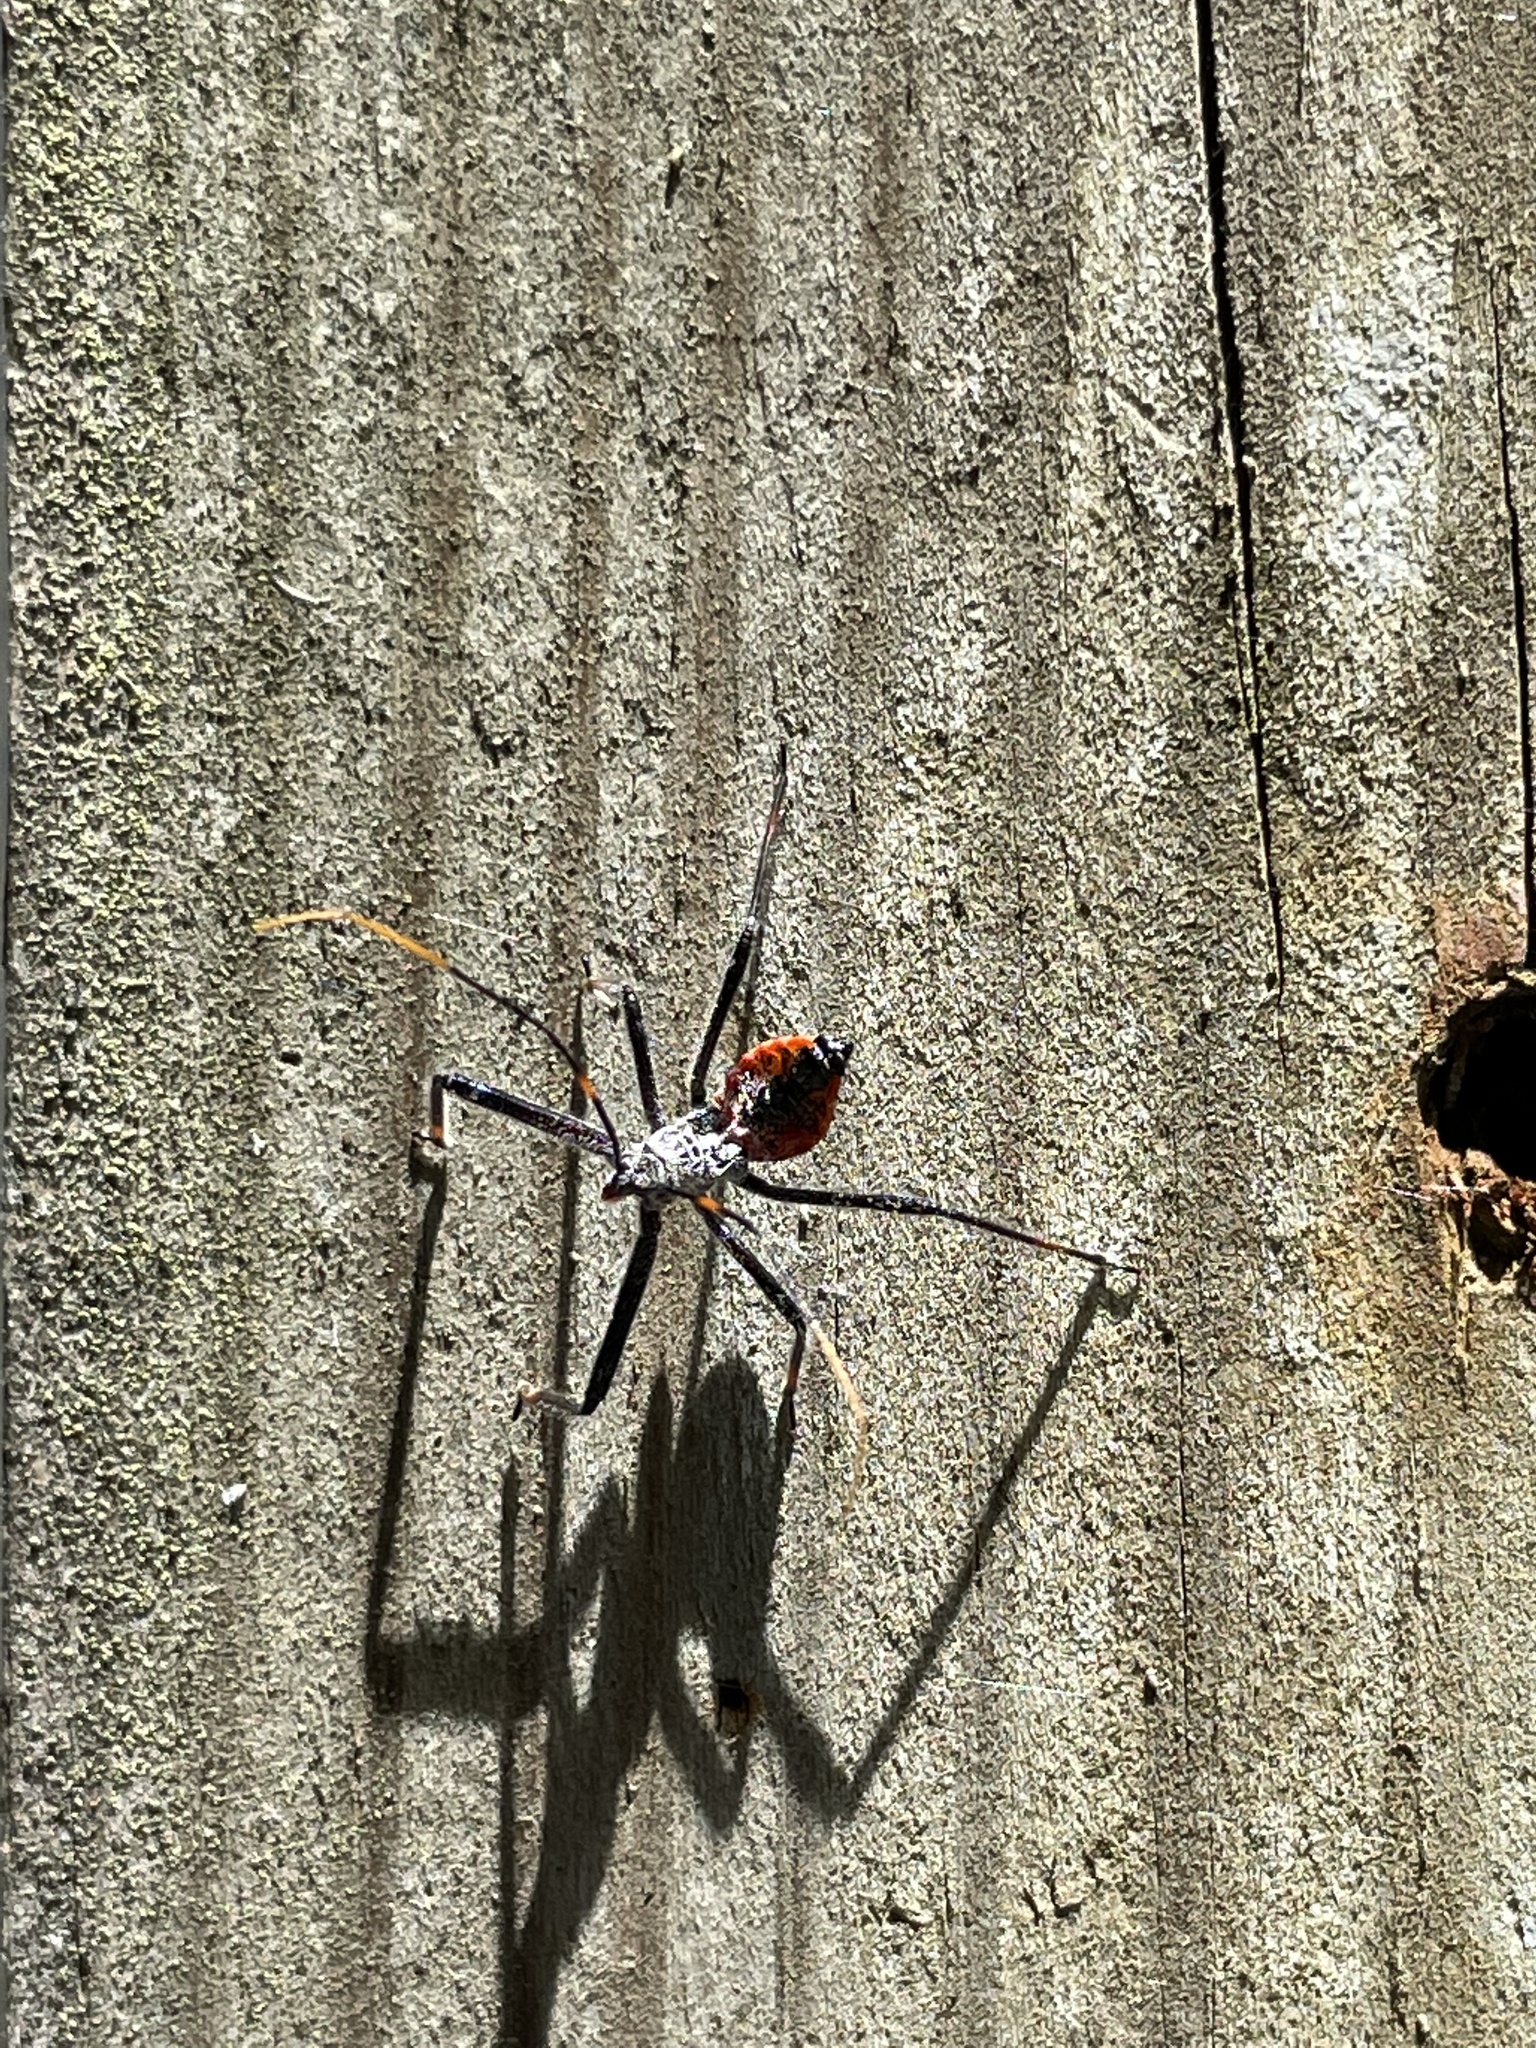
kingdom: Animalia
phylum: Arthropoda
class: Insecta
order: Hemiptera
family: Reduviidae
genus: Arilus
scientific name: Arilus cristatus
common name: North american wheel bug
